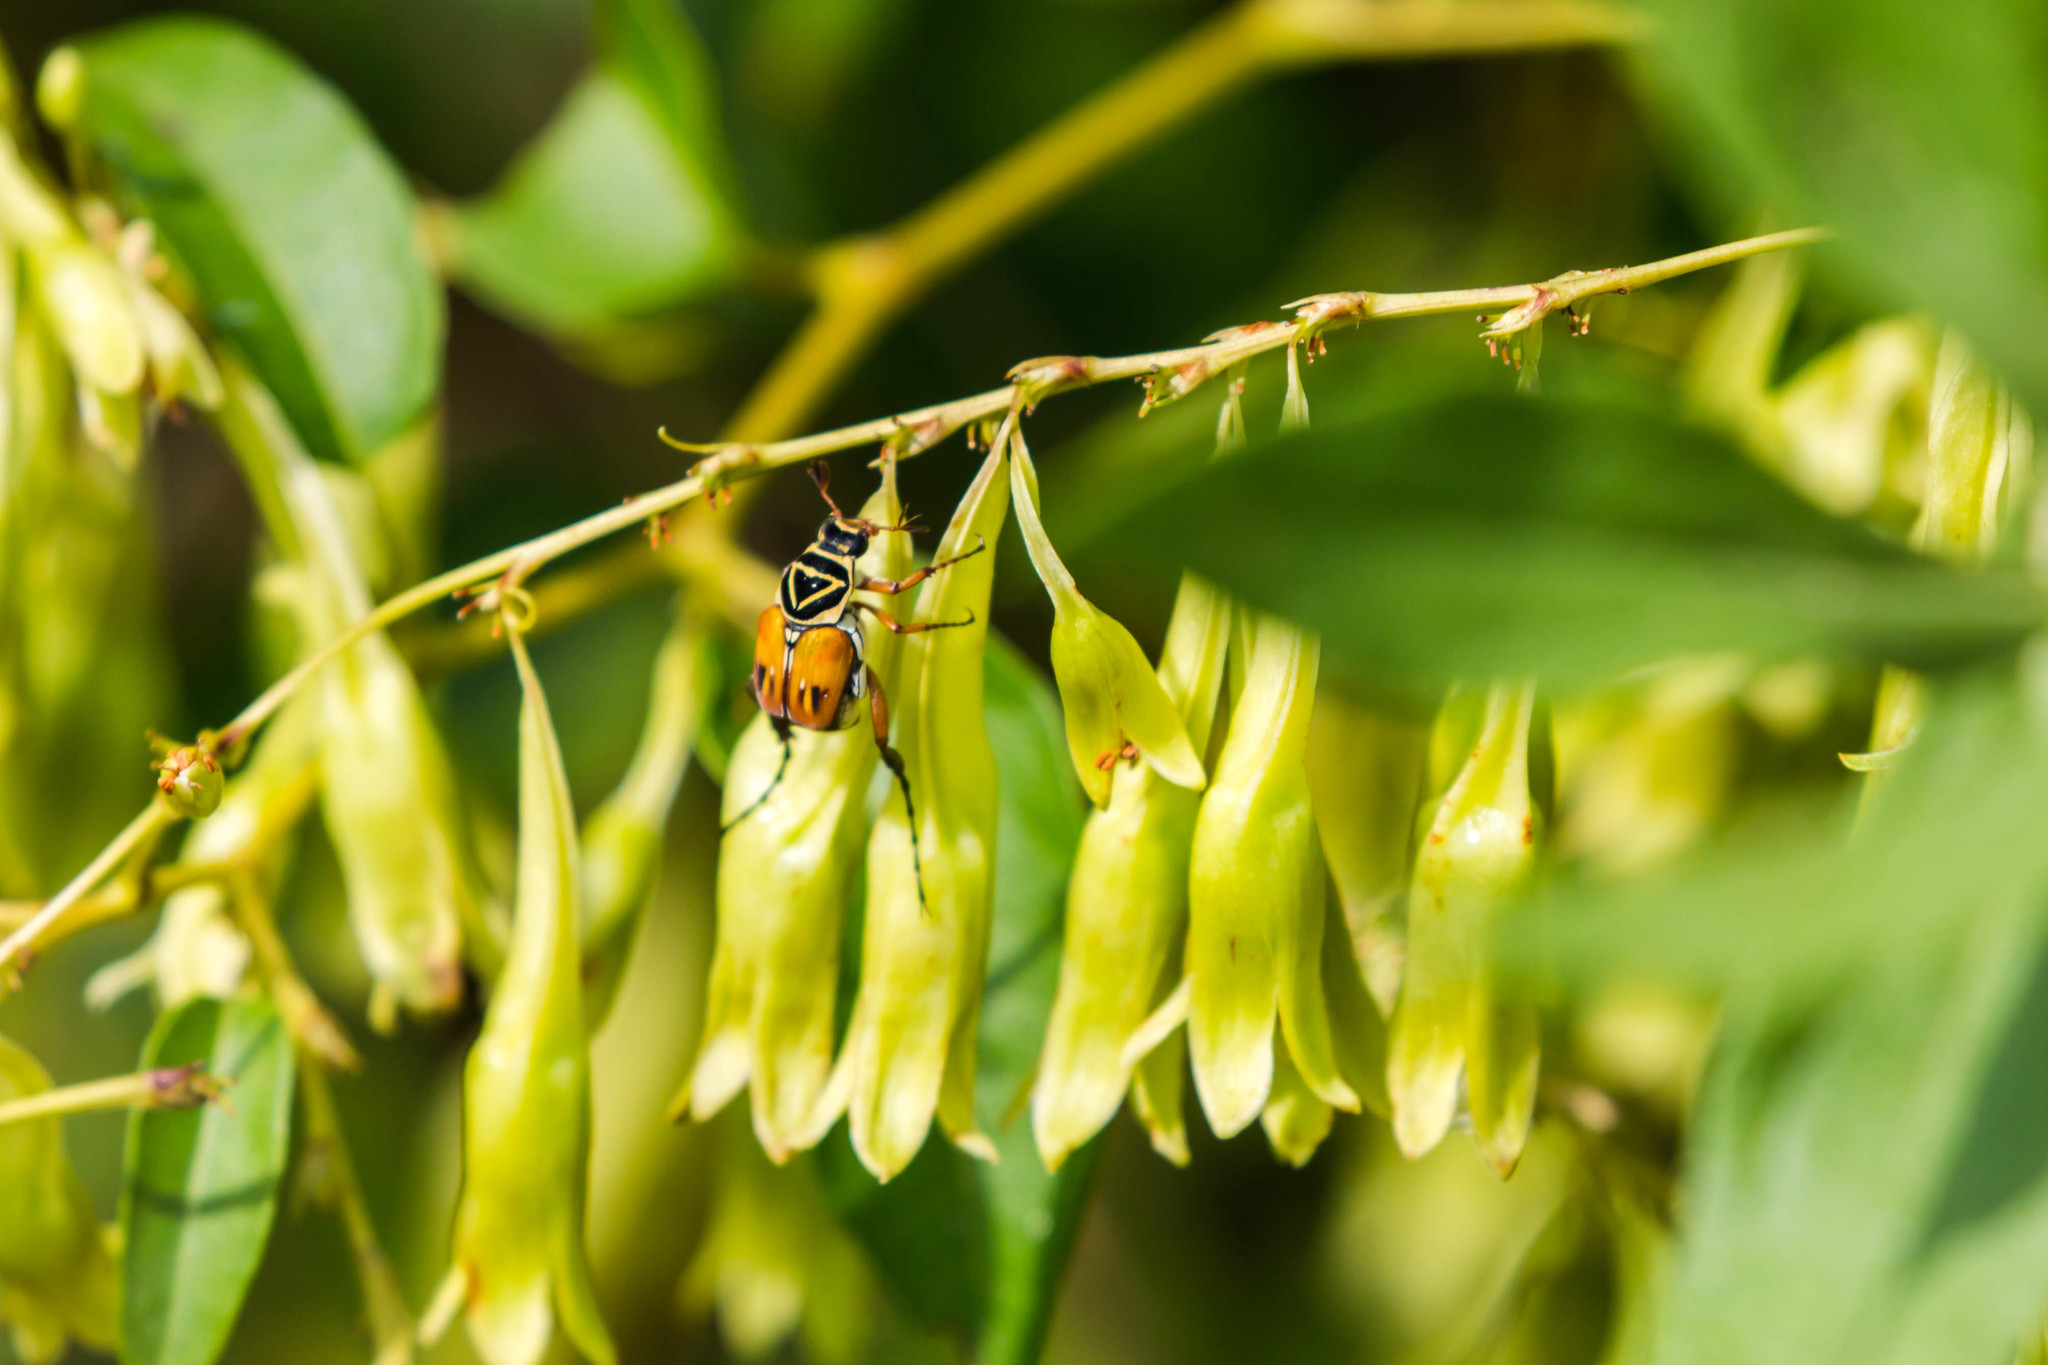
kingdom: Animalia
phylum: Arthropoda
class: Insecta
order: Coleoptera
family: Scarabaeidae
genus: Trigonopeltastes
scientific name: Trigonopeltastes delta
